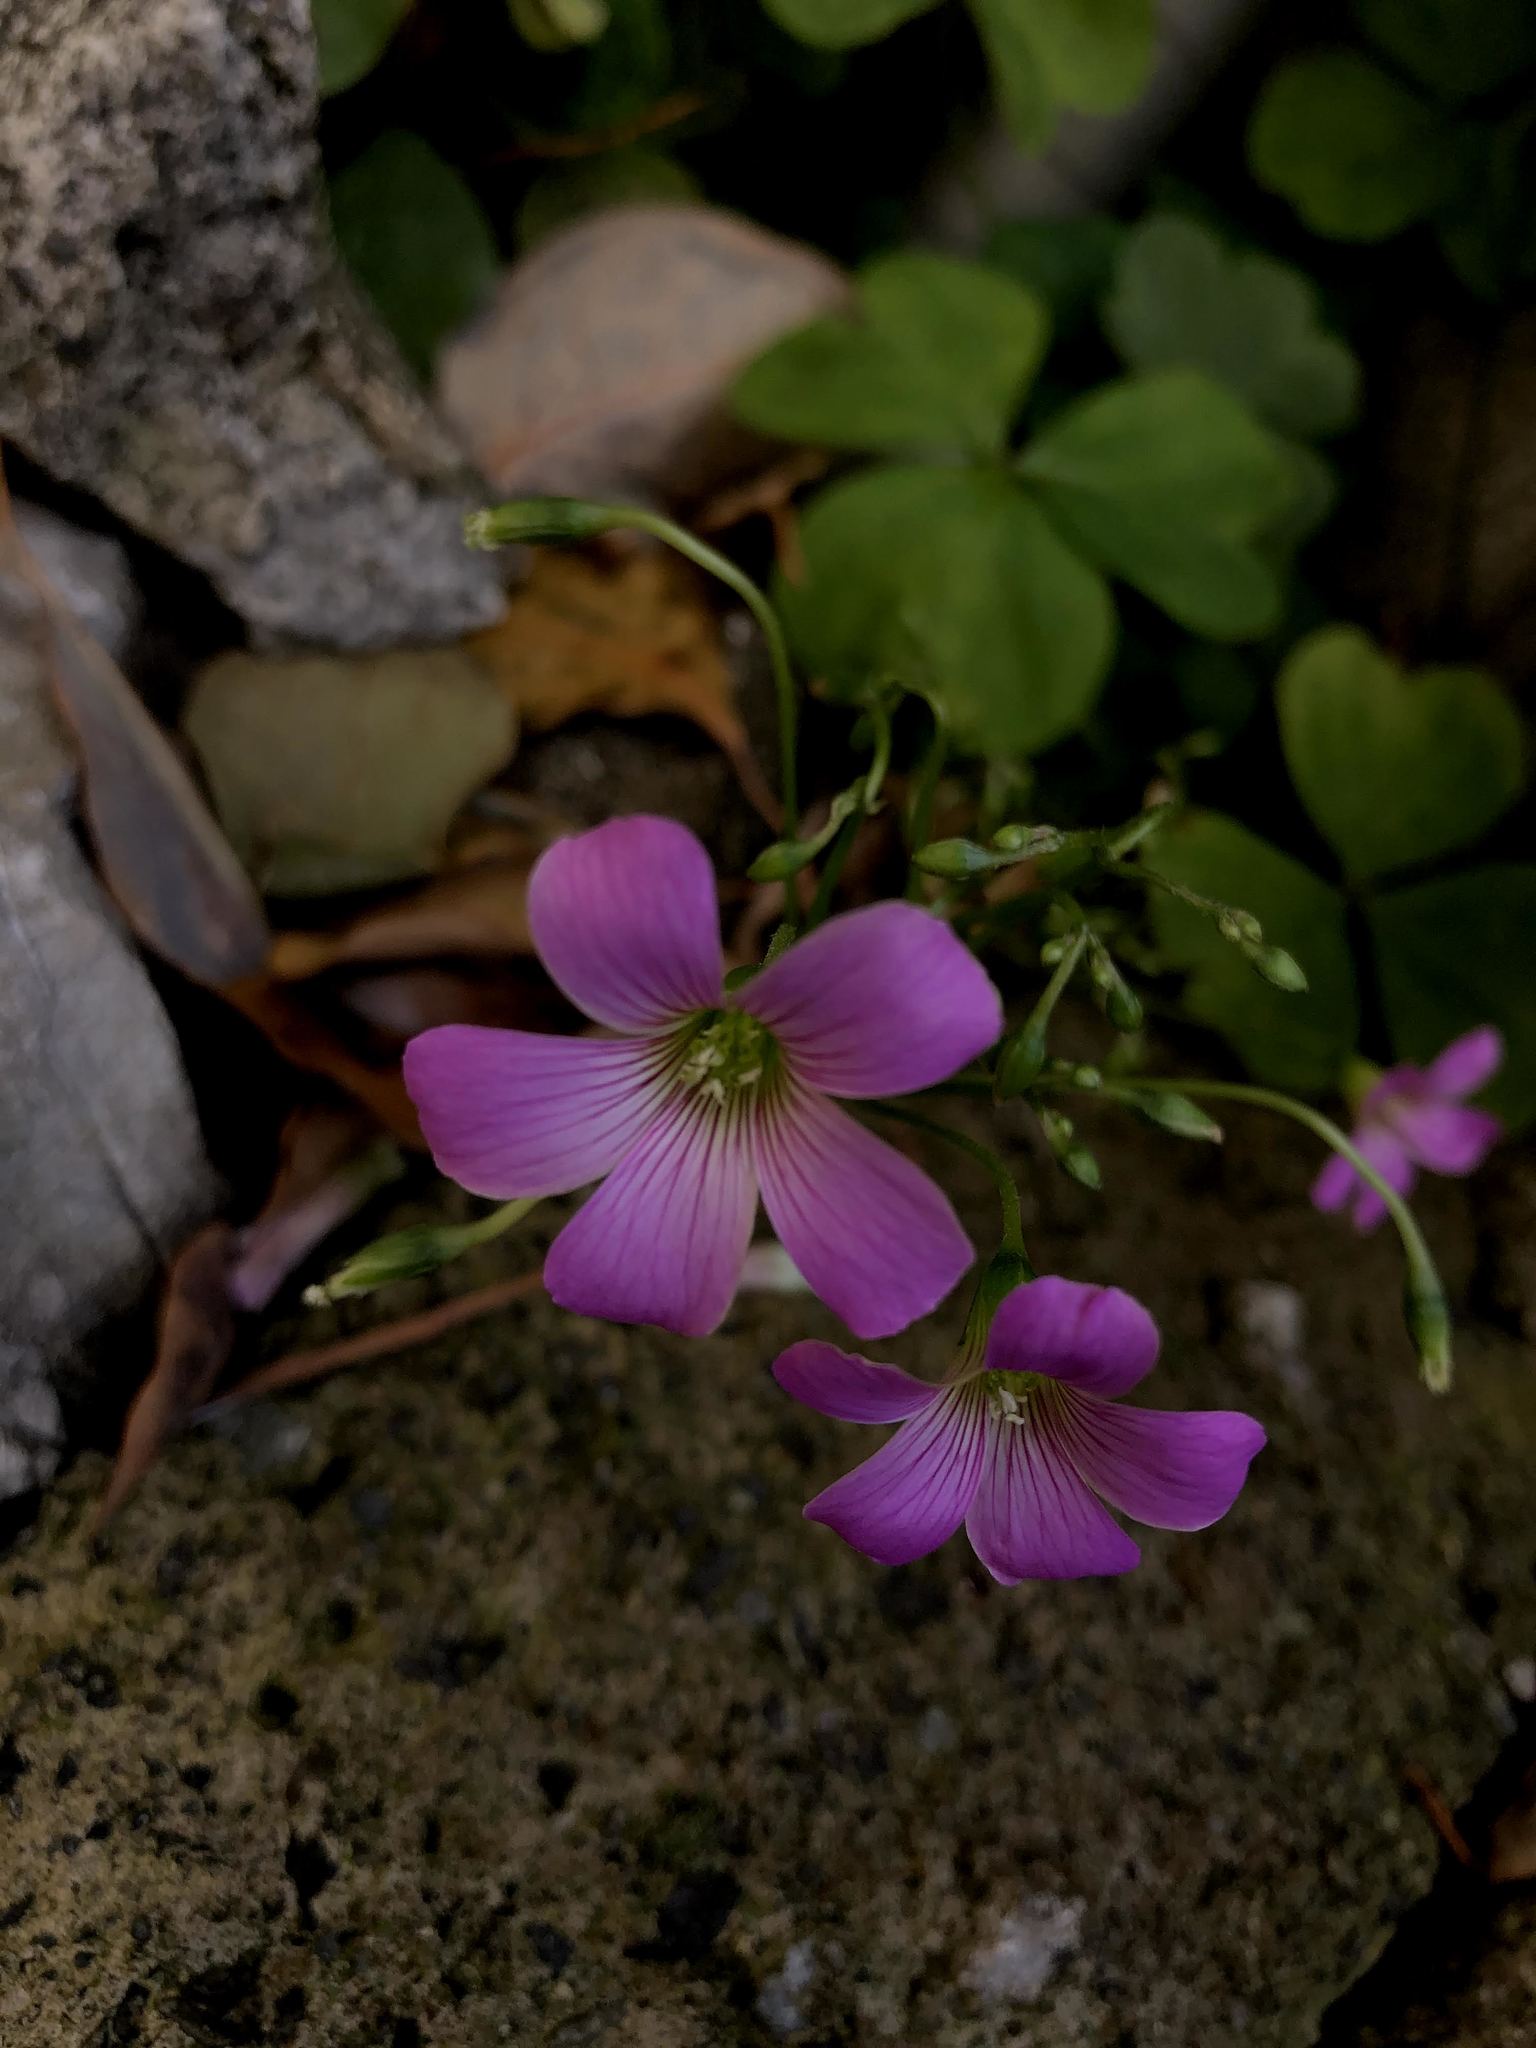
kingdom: Plantae
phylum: Tracheophyta
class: Magnoliopsida
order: Oxalidales
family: Oxalidaceae
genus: Oxalis
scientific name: Oxalis debilis
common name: Large-flowered pink-sorrel
